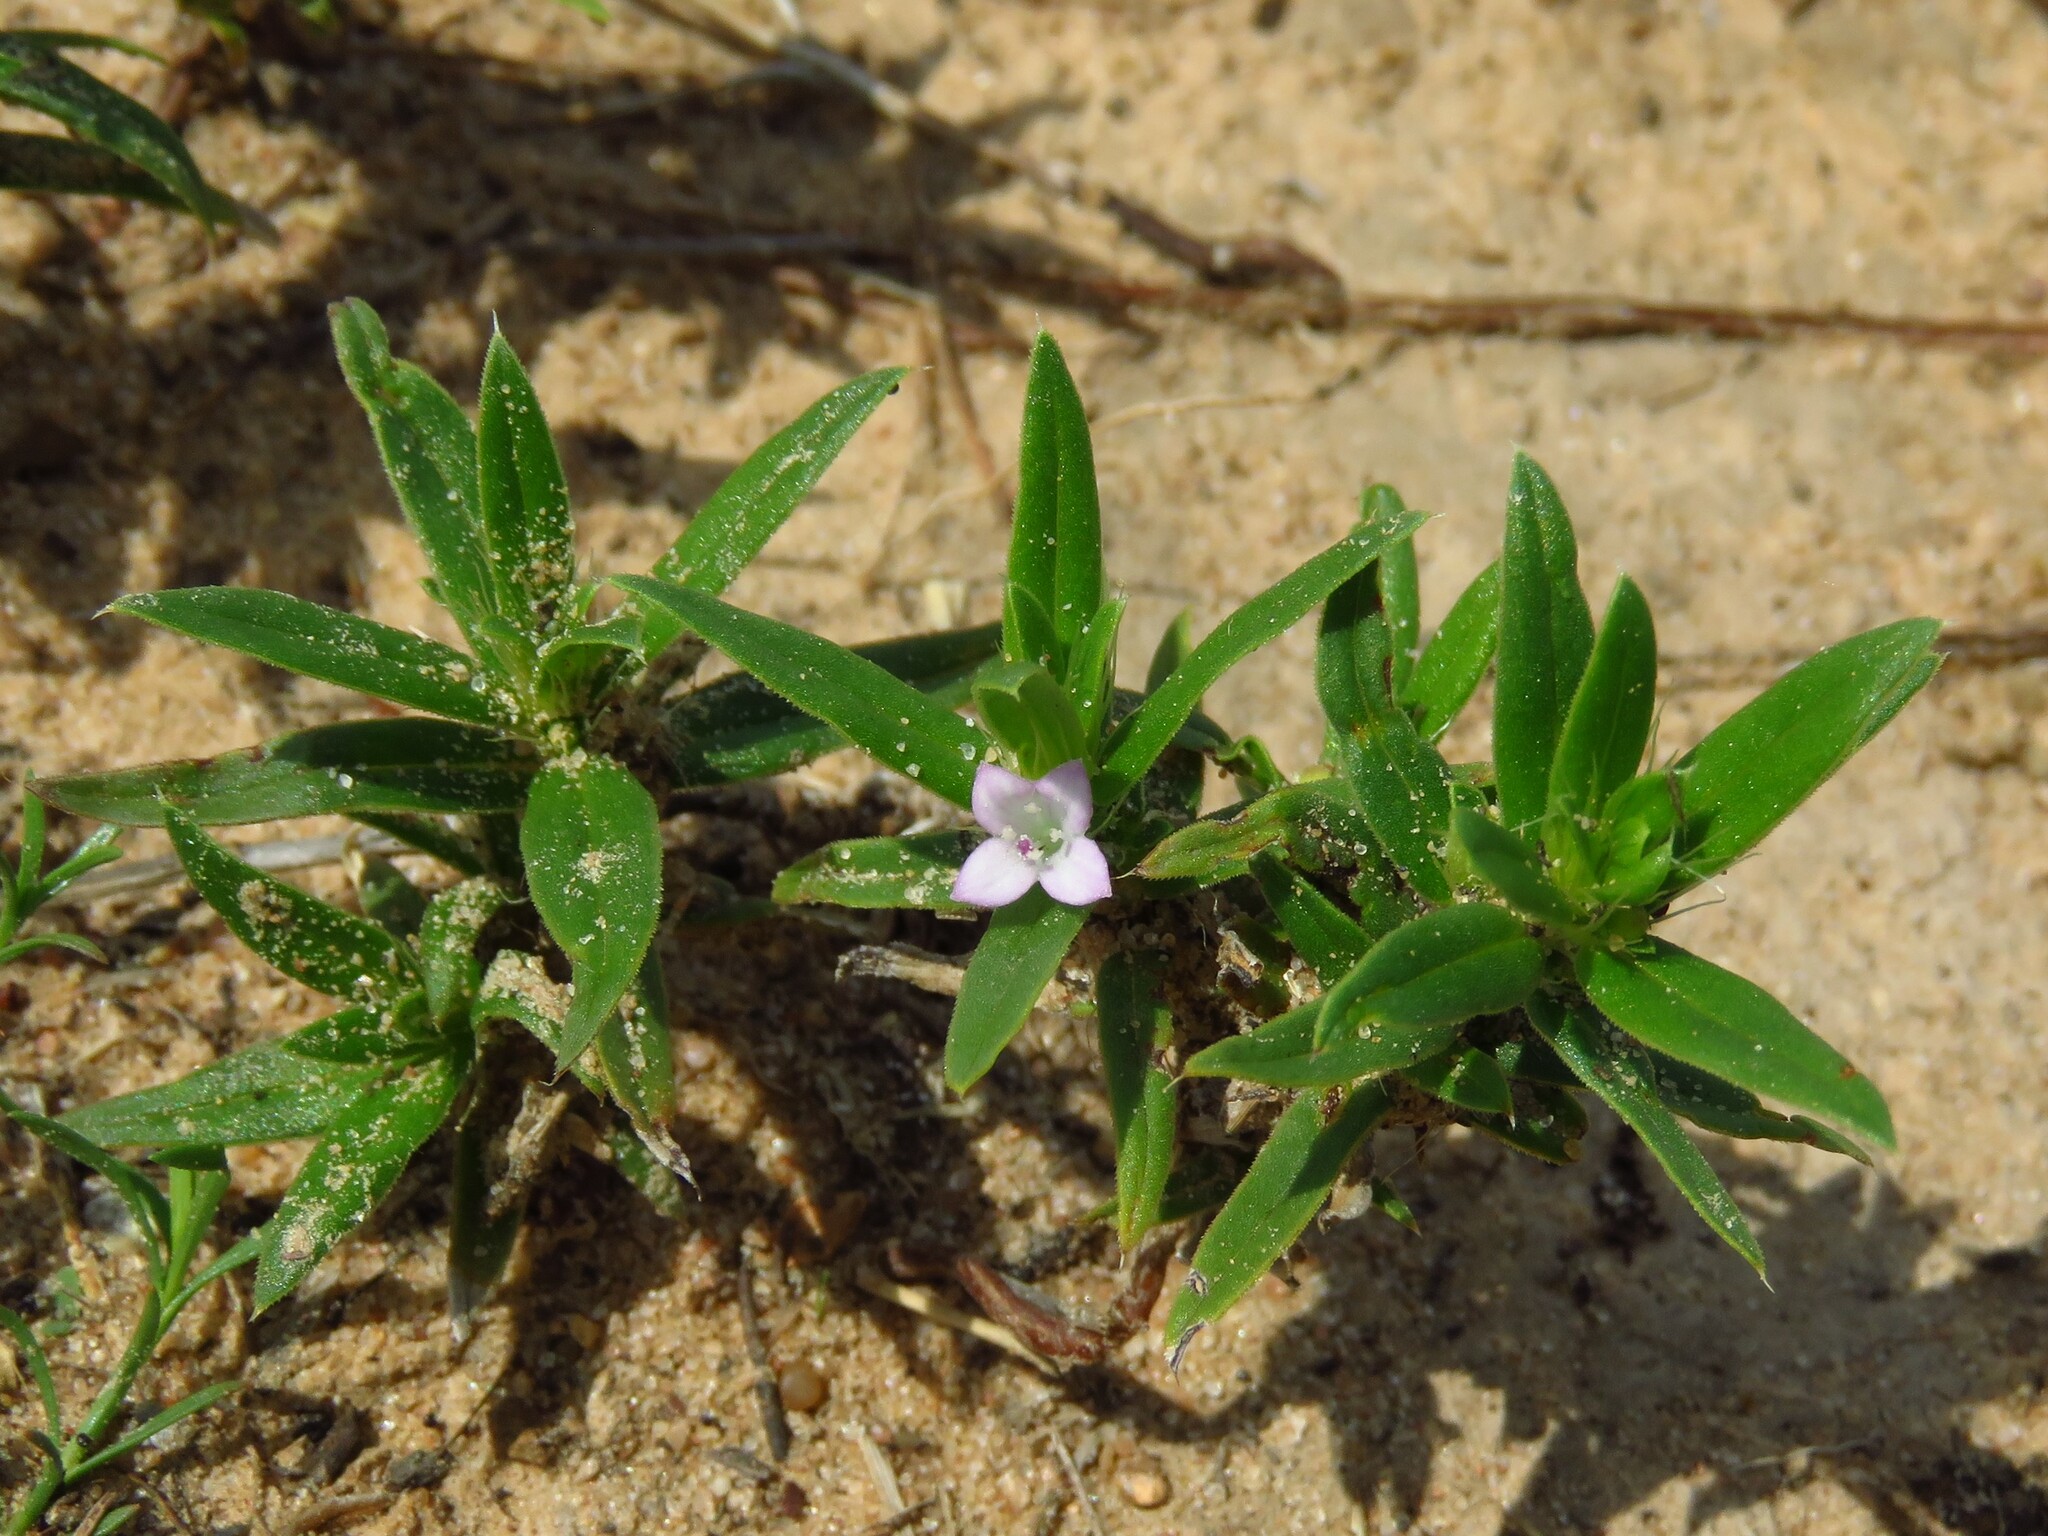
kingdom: Plantae
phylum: Tracheophyta
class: Magnoliopsida
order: Gentianales
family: Rubiaceae
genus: Hexasepalum
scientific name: Hexasepalum teres
